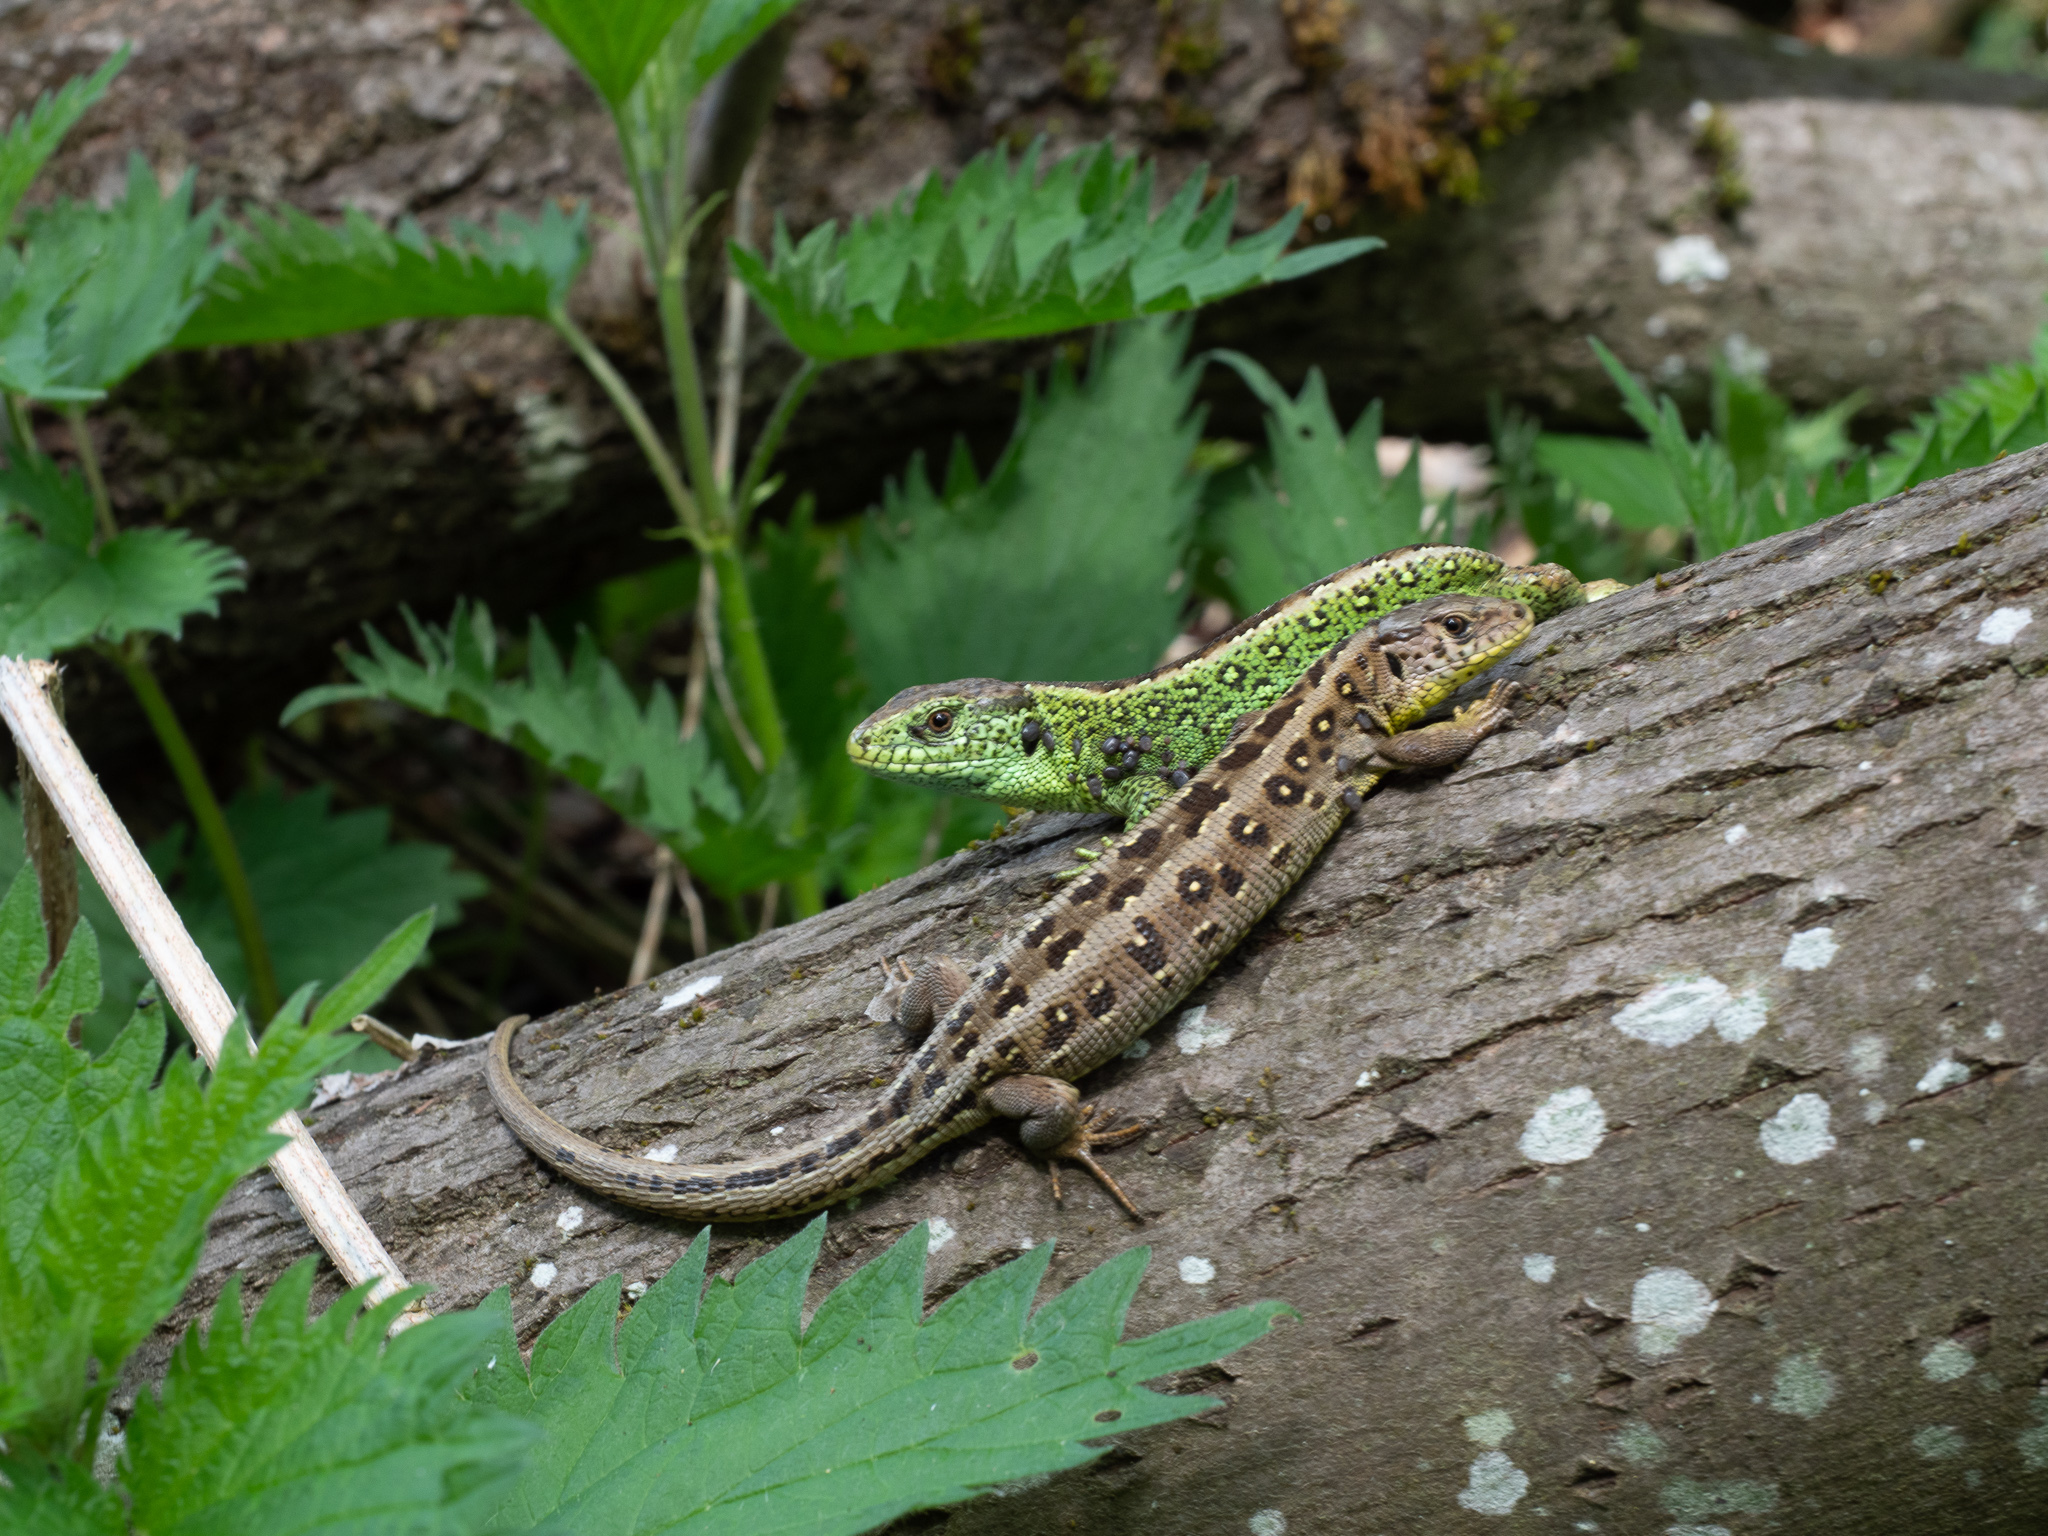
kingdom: Animalia
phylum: Chordata
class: Squamata
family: Lacertidae
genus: Lacerta
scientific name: Lacerta agilis
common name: Sand lizard
